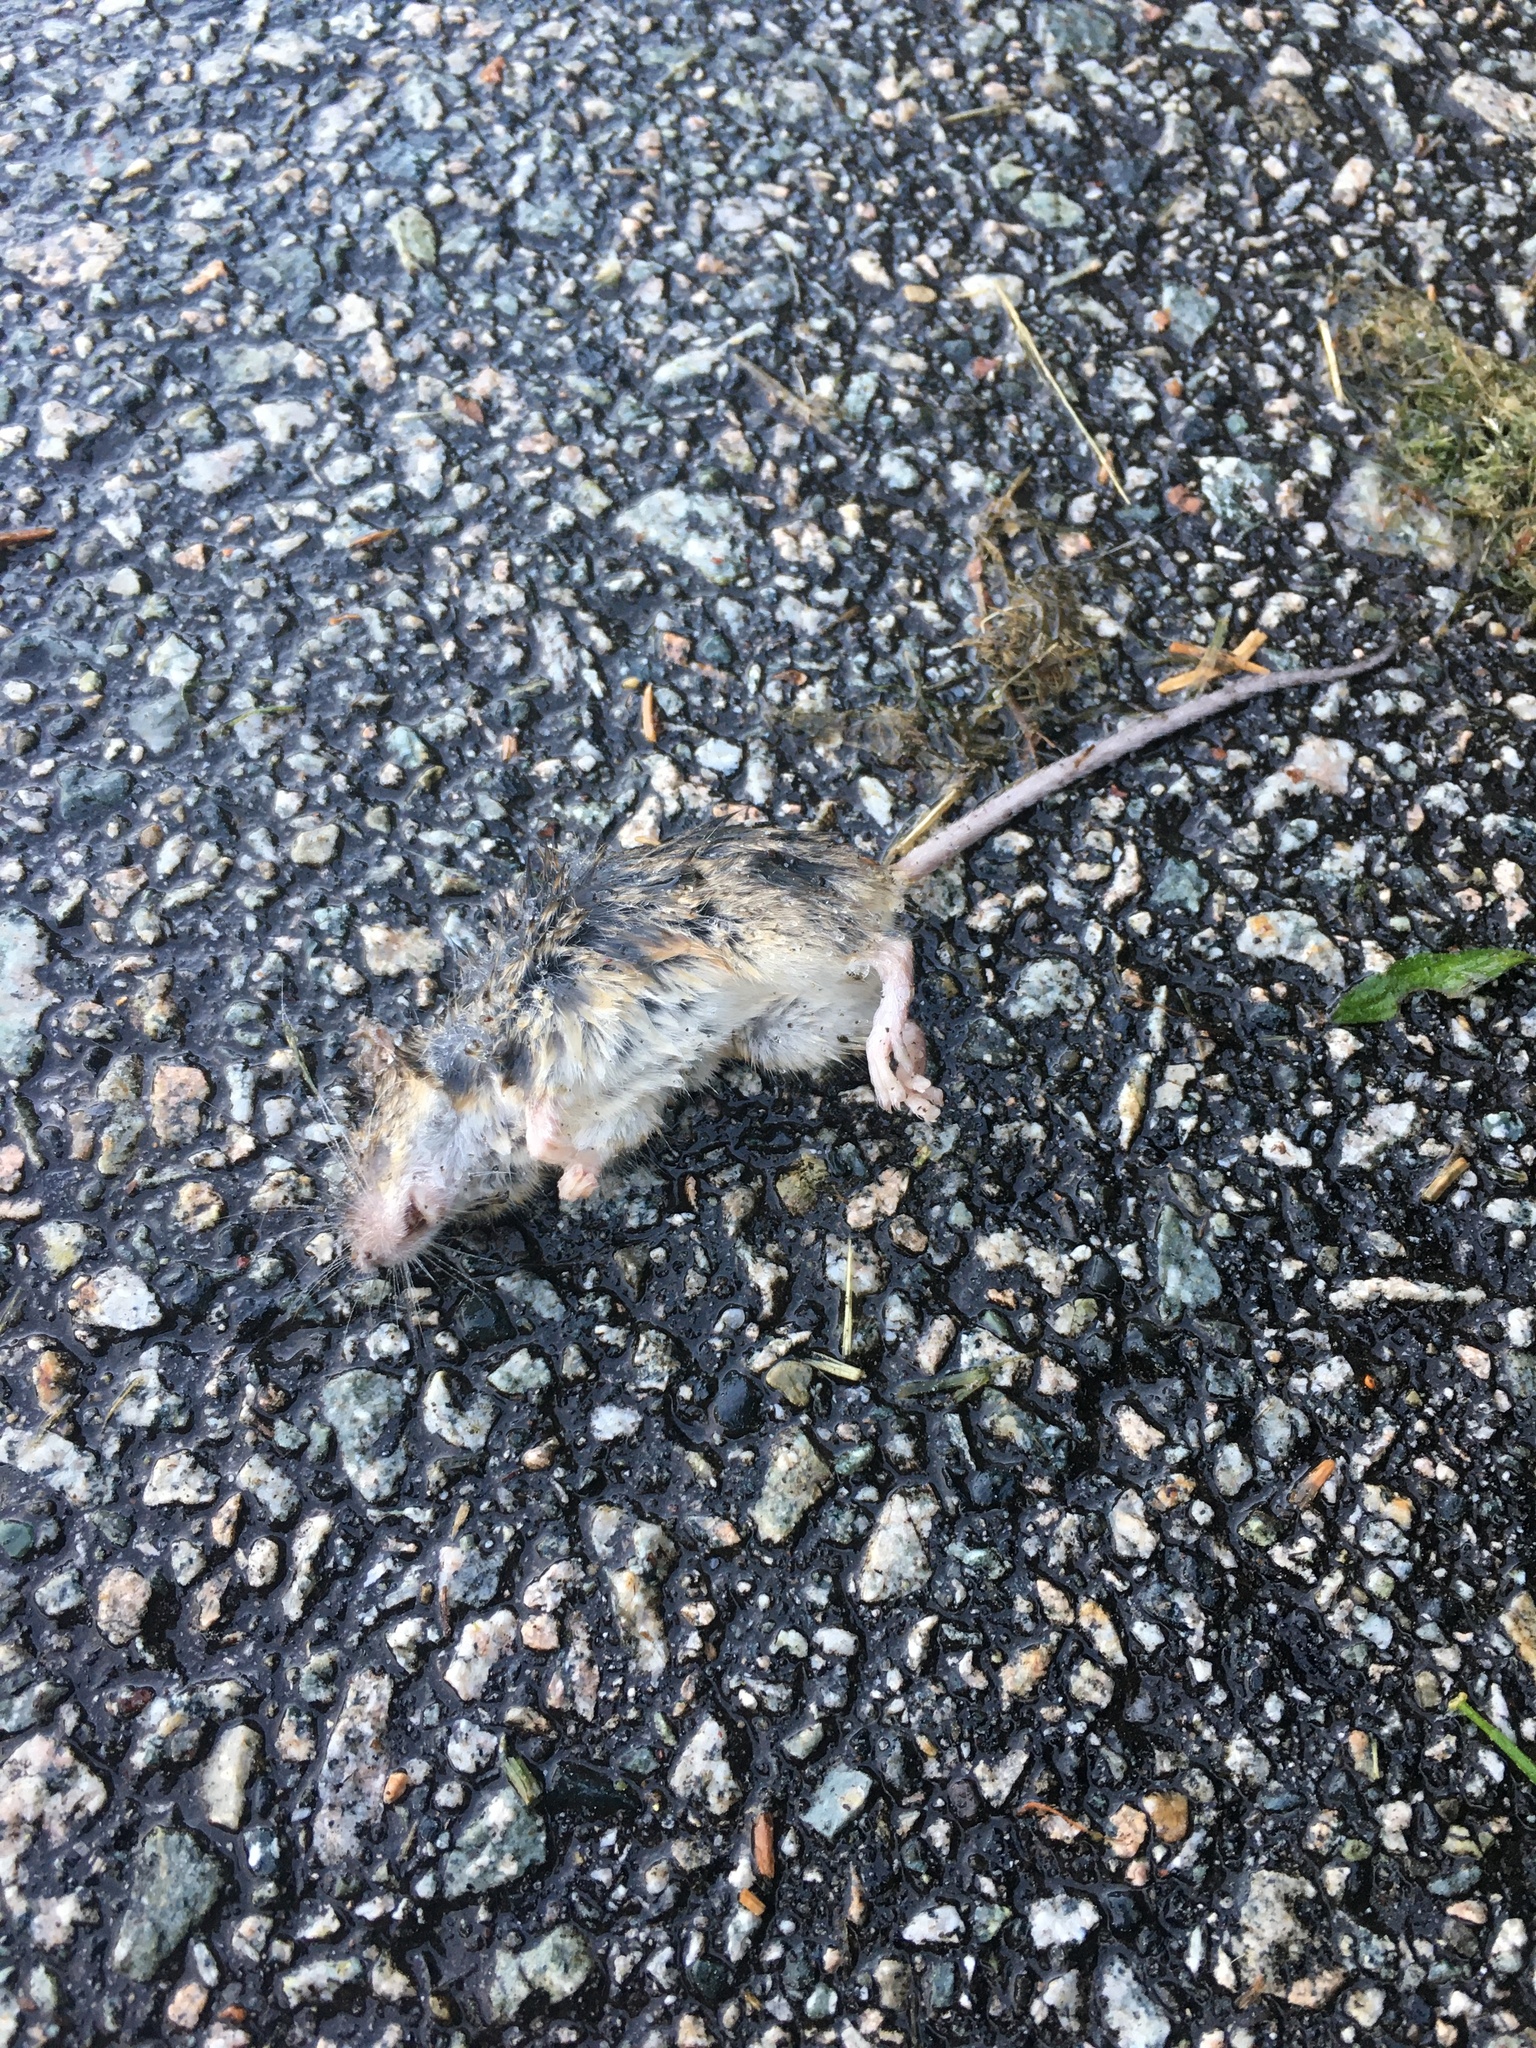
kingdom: Animalia
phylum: Chordata
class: Mammalia
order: Rodentia
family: Muridae
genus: Mus
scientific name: Mus musculus
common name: House mouse
